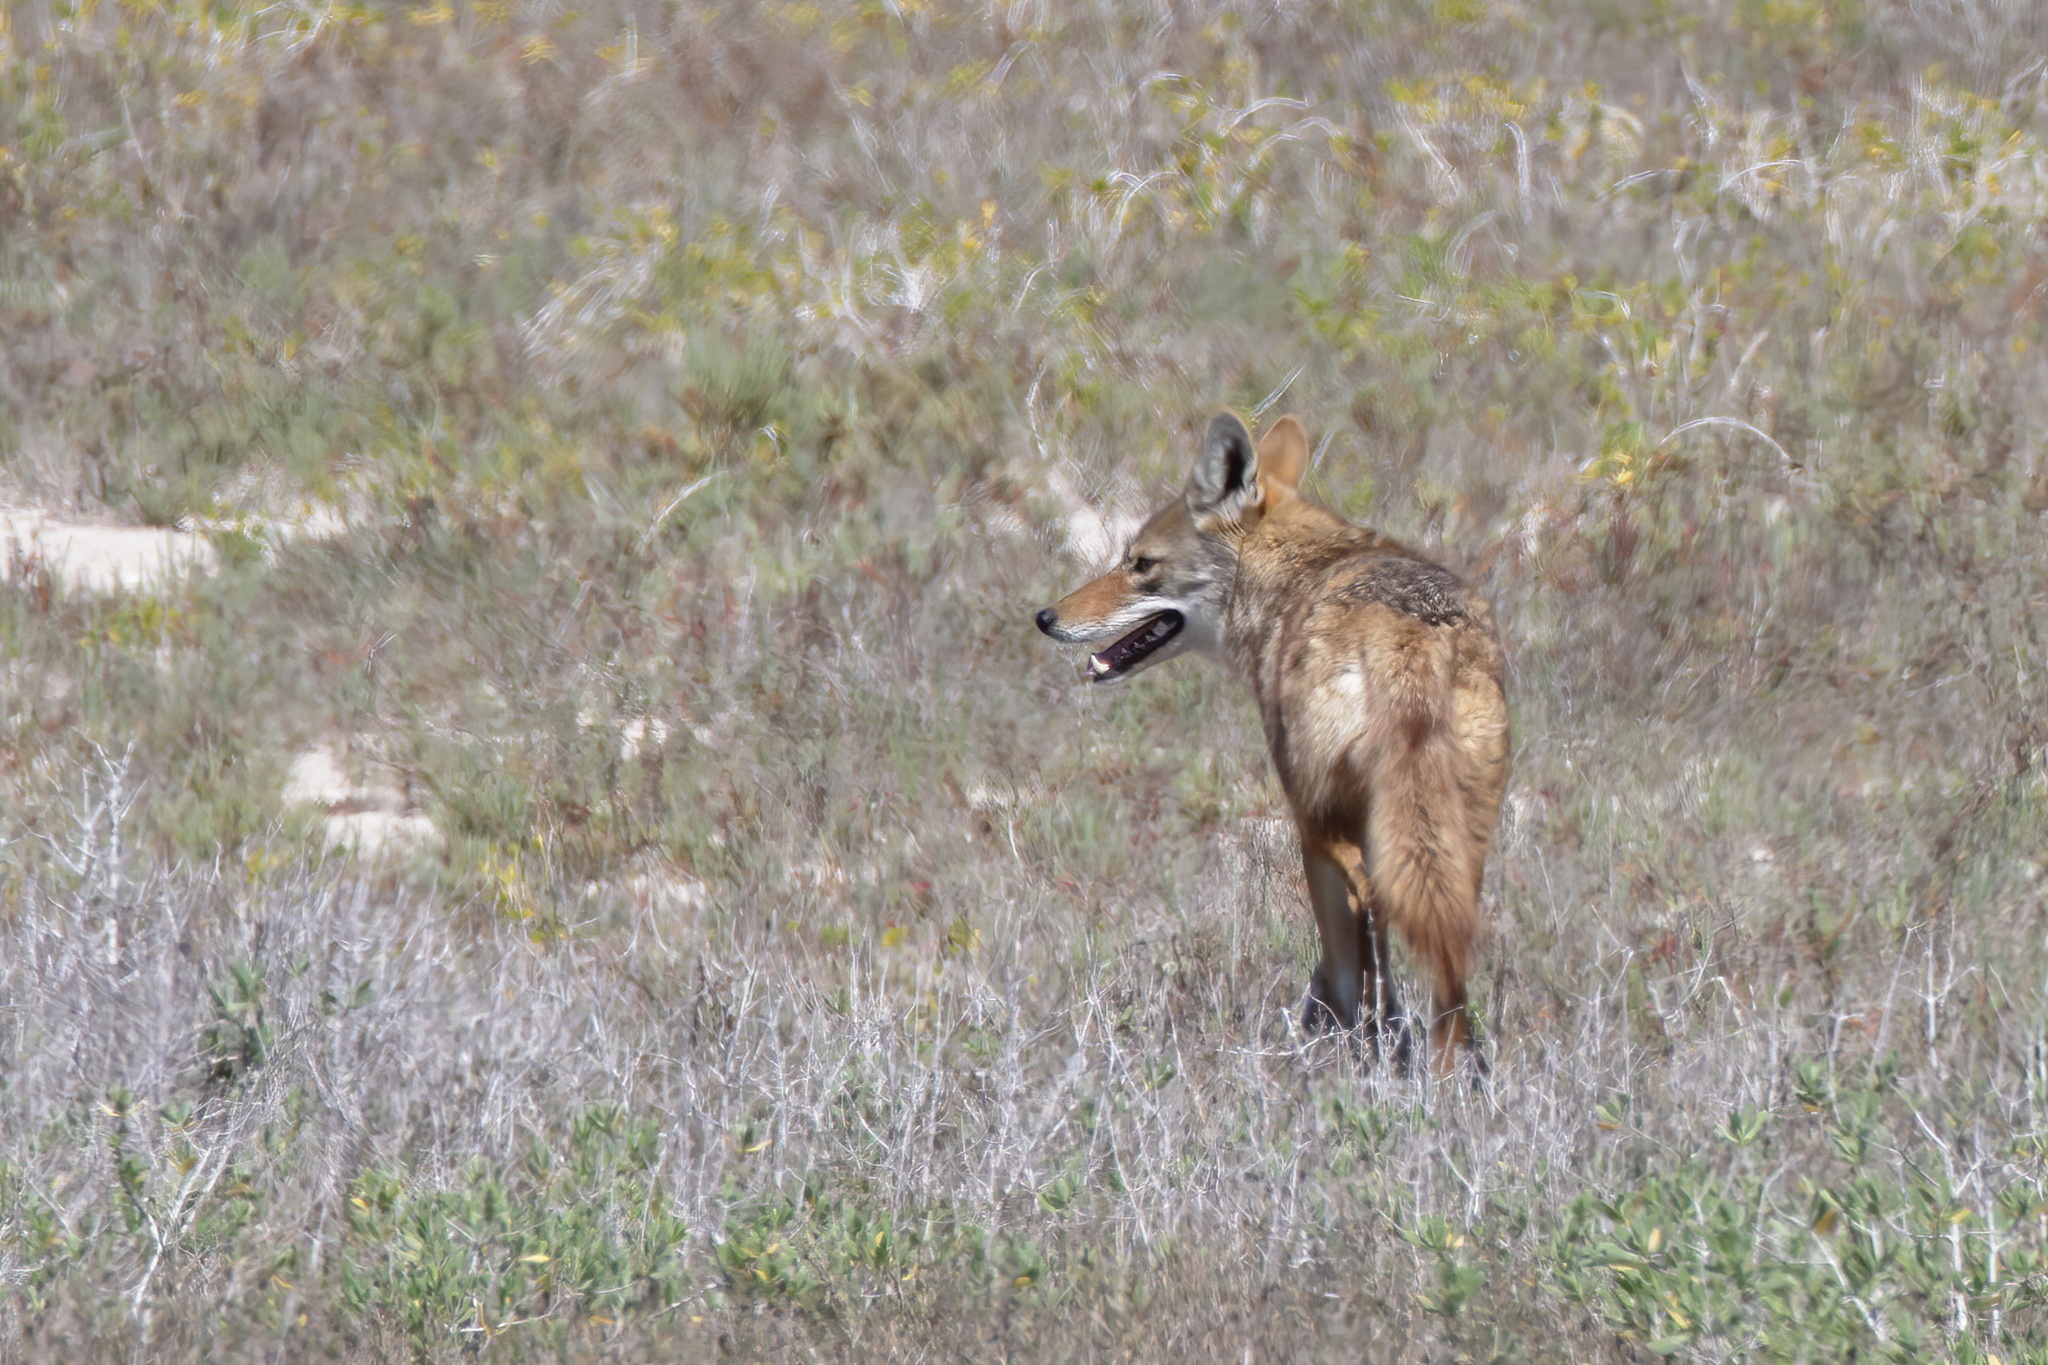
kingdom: Animalia
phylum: Chordata
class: Mammalia
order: Carnivora
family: Canidae
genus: Canis
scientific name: Canis latrans
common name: Coyote
